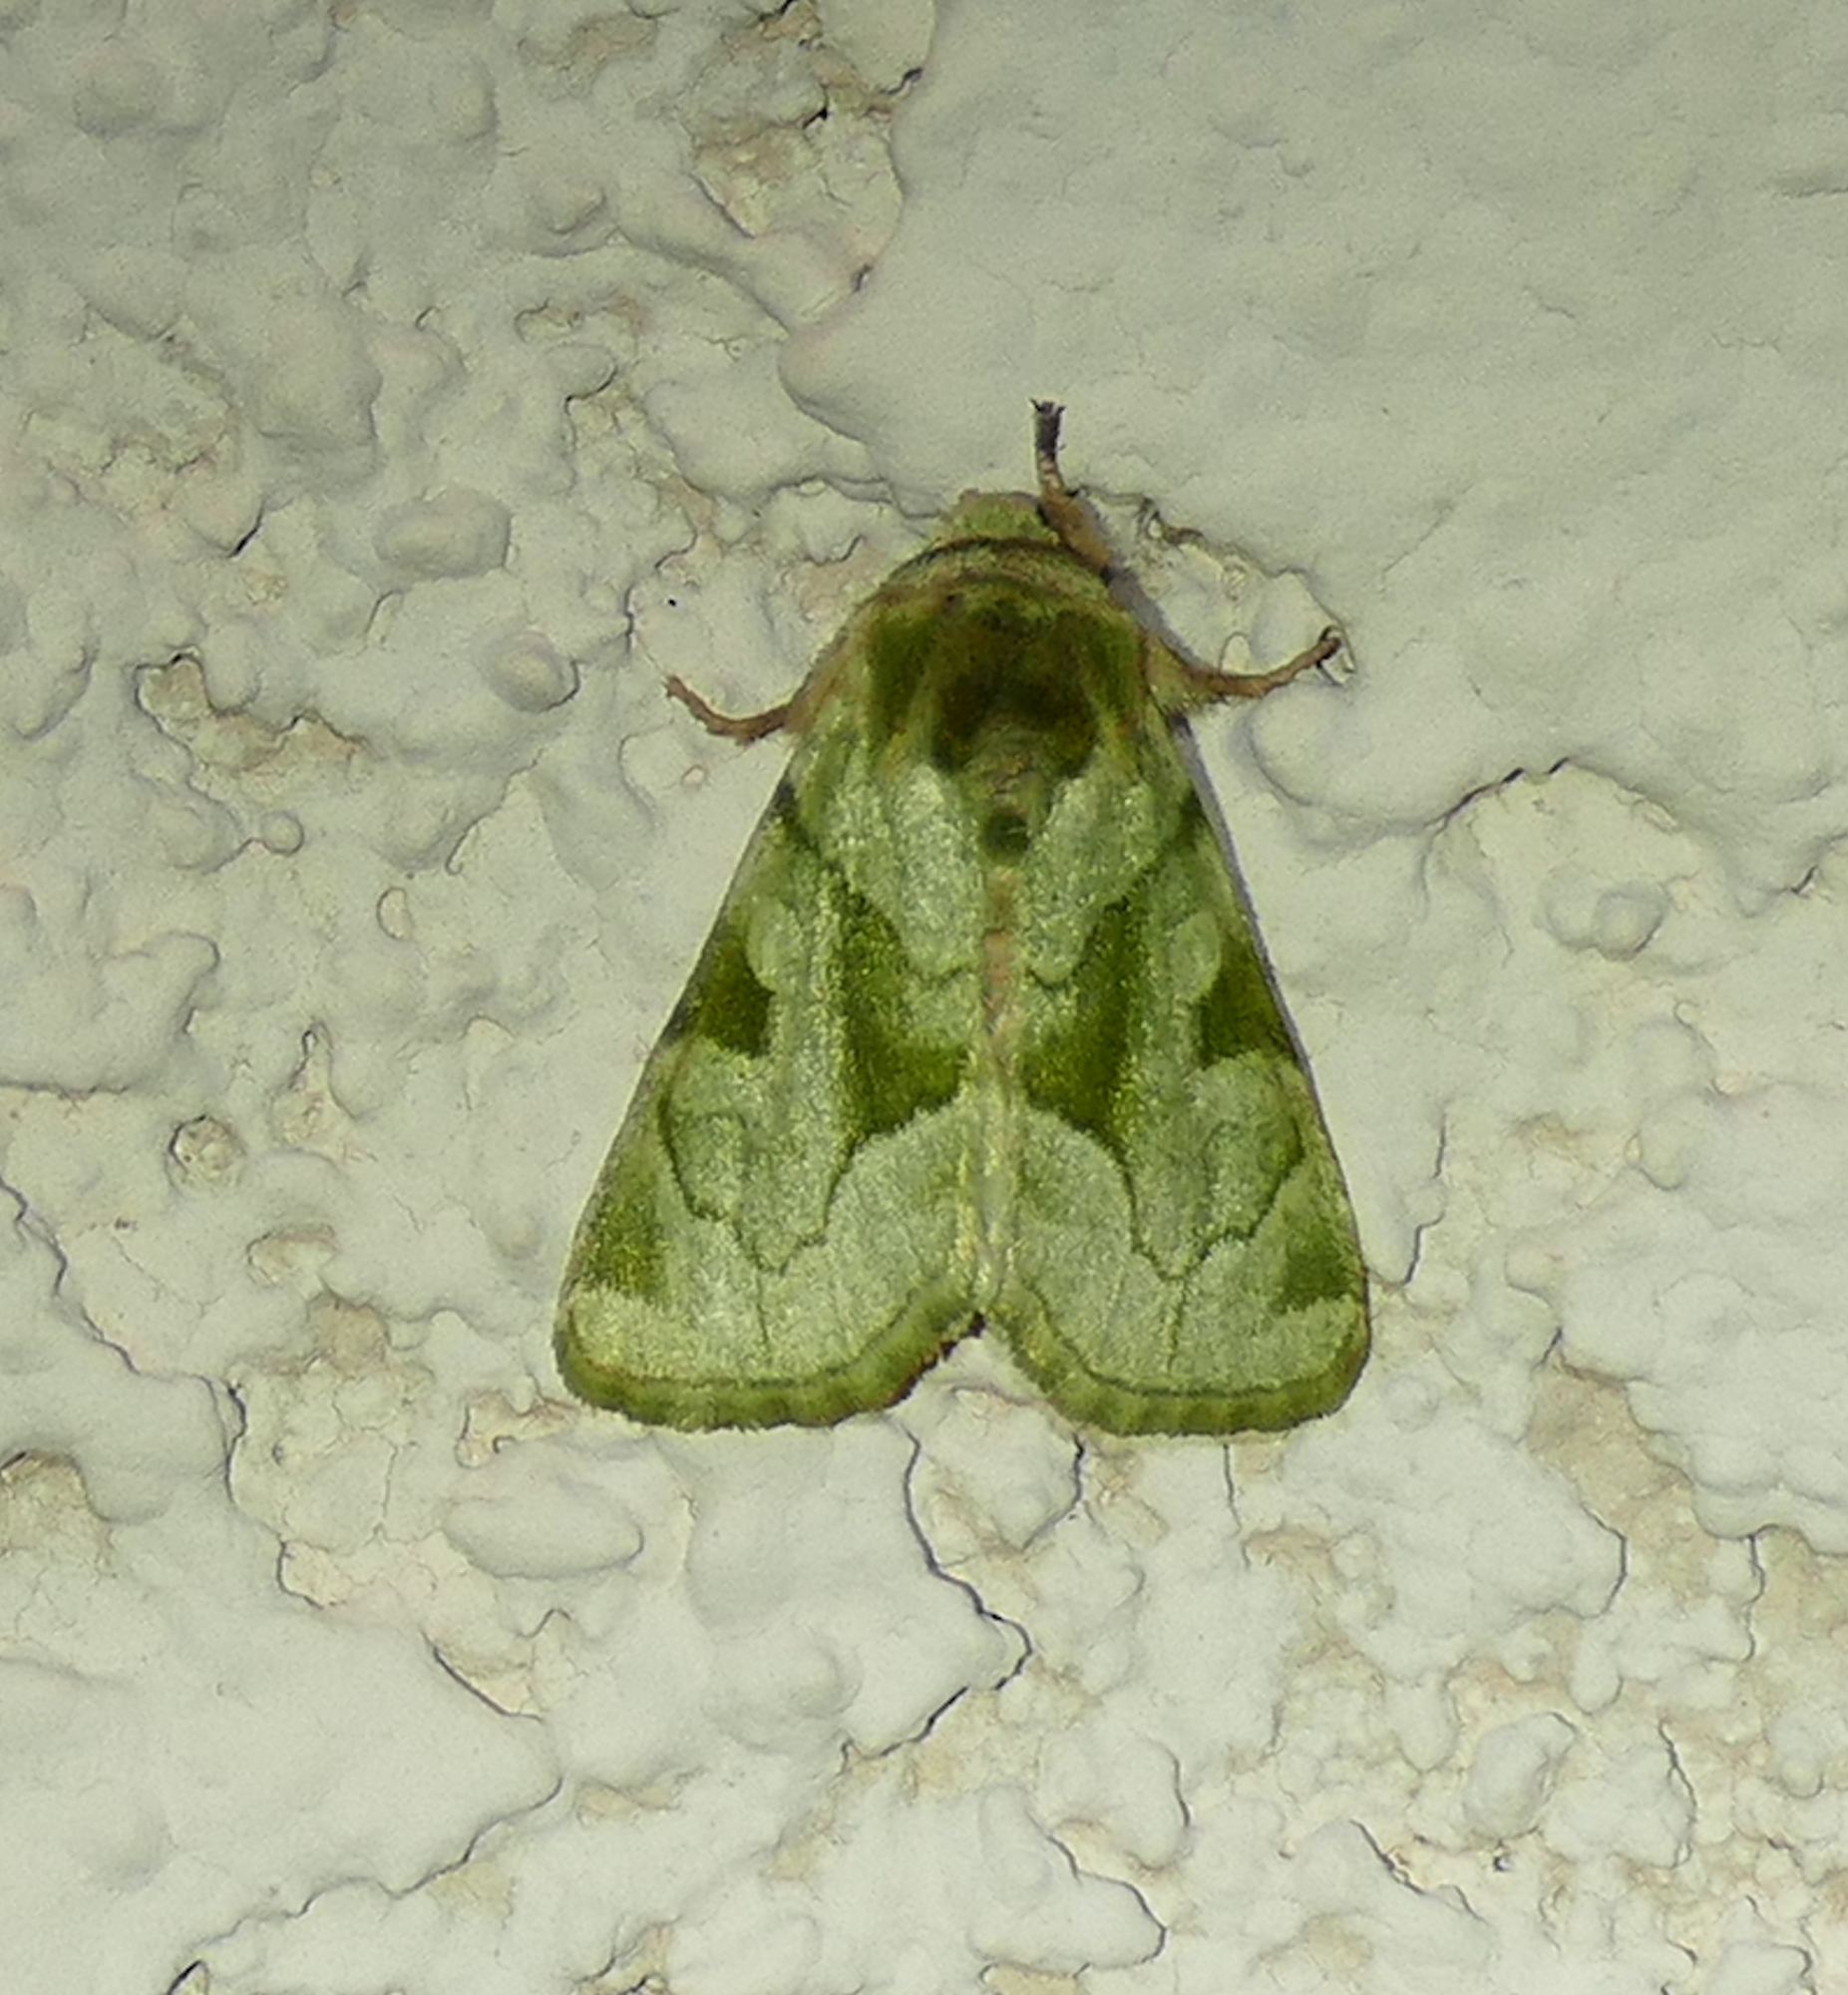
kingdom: Animalia
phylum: Arthropoda
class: Insecta
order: Lepidoptera
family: Noctuidae
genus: Oslaria
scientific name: Oslaria viridifera
